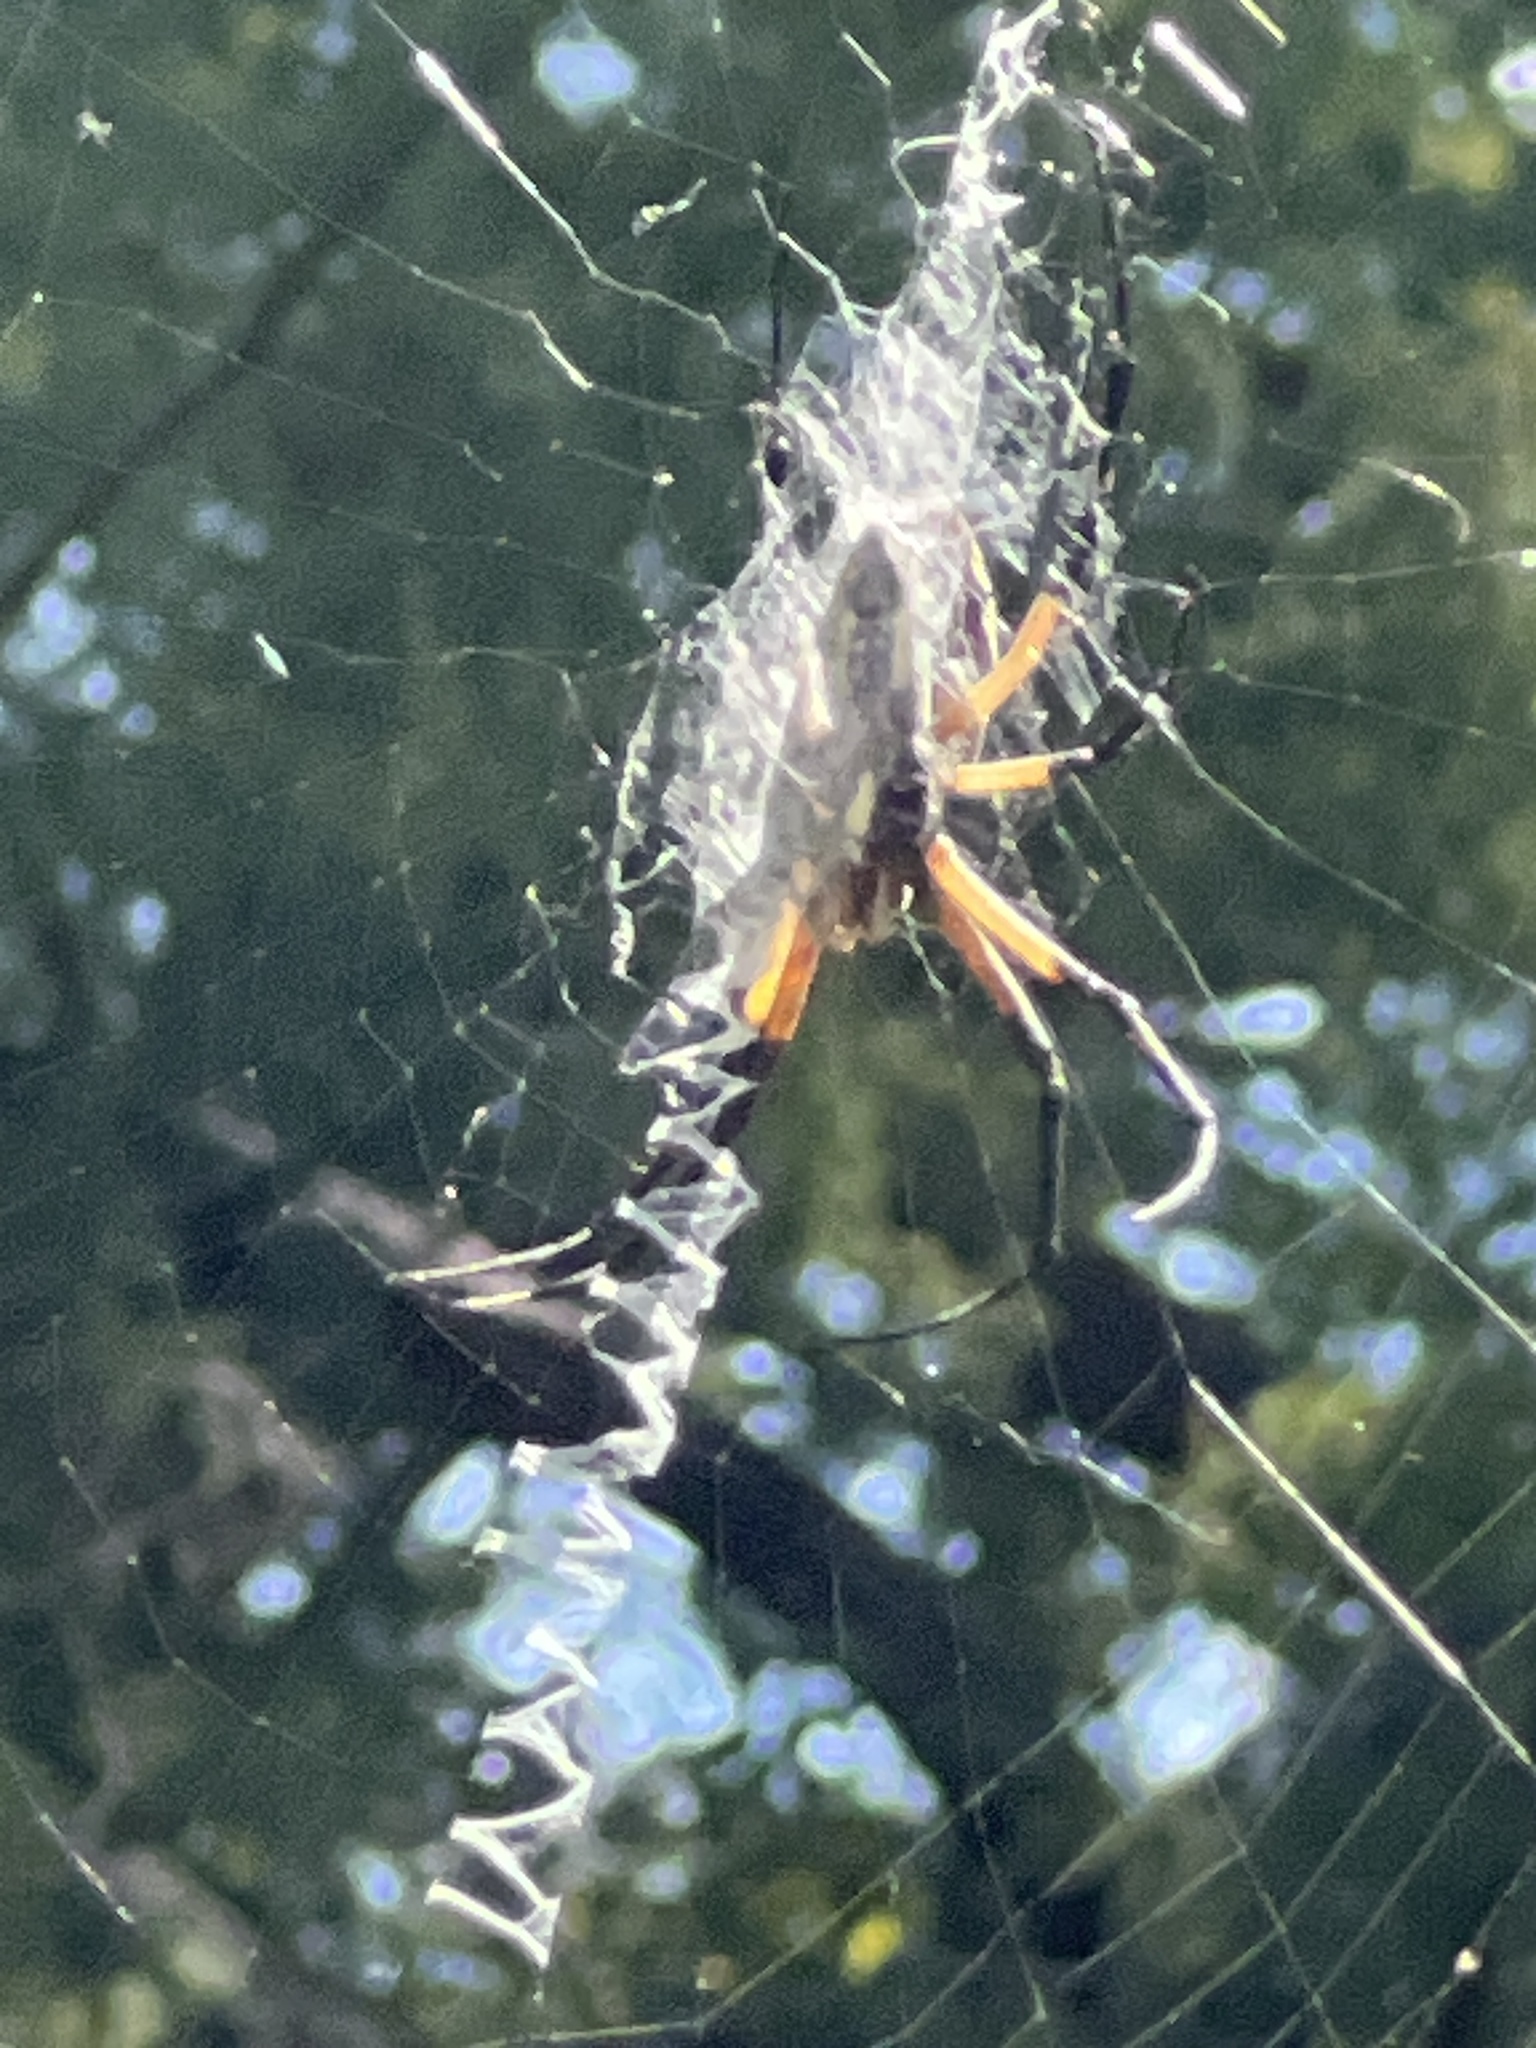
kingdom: Animalia
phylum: Arthropoda
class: Arachnida
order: Araneae
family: Araneidae
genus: Argiope
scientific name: Argiope aurantia
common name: Orb weavers
